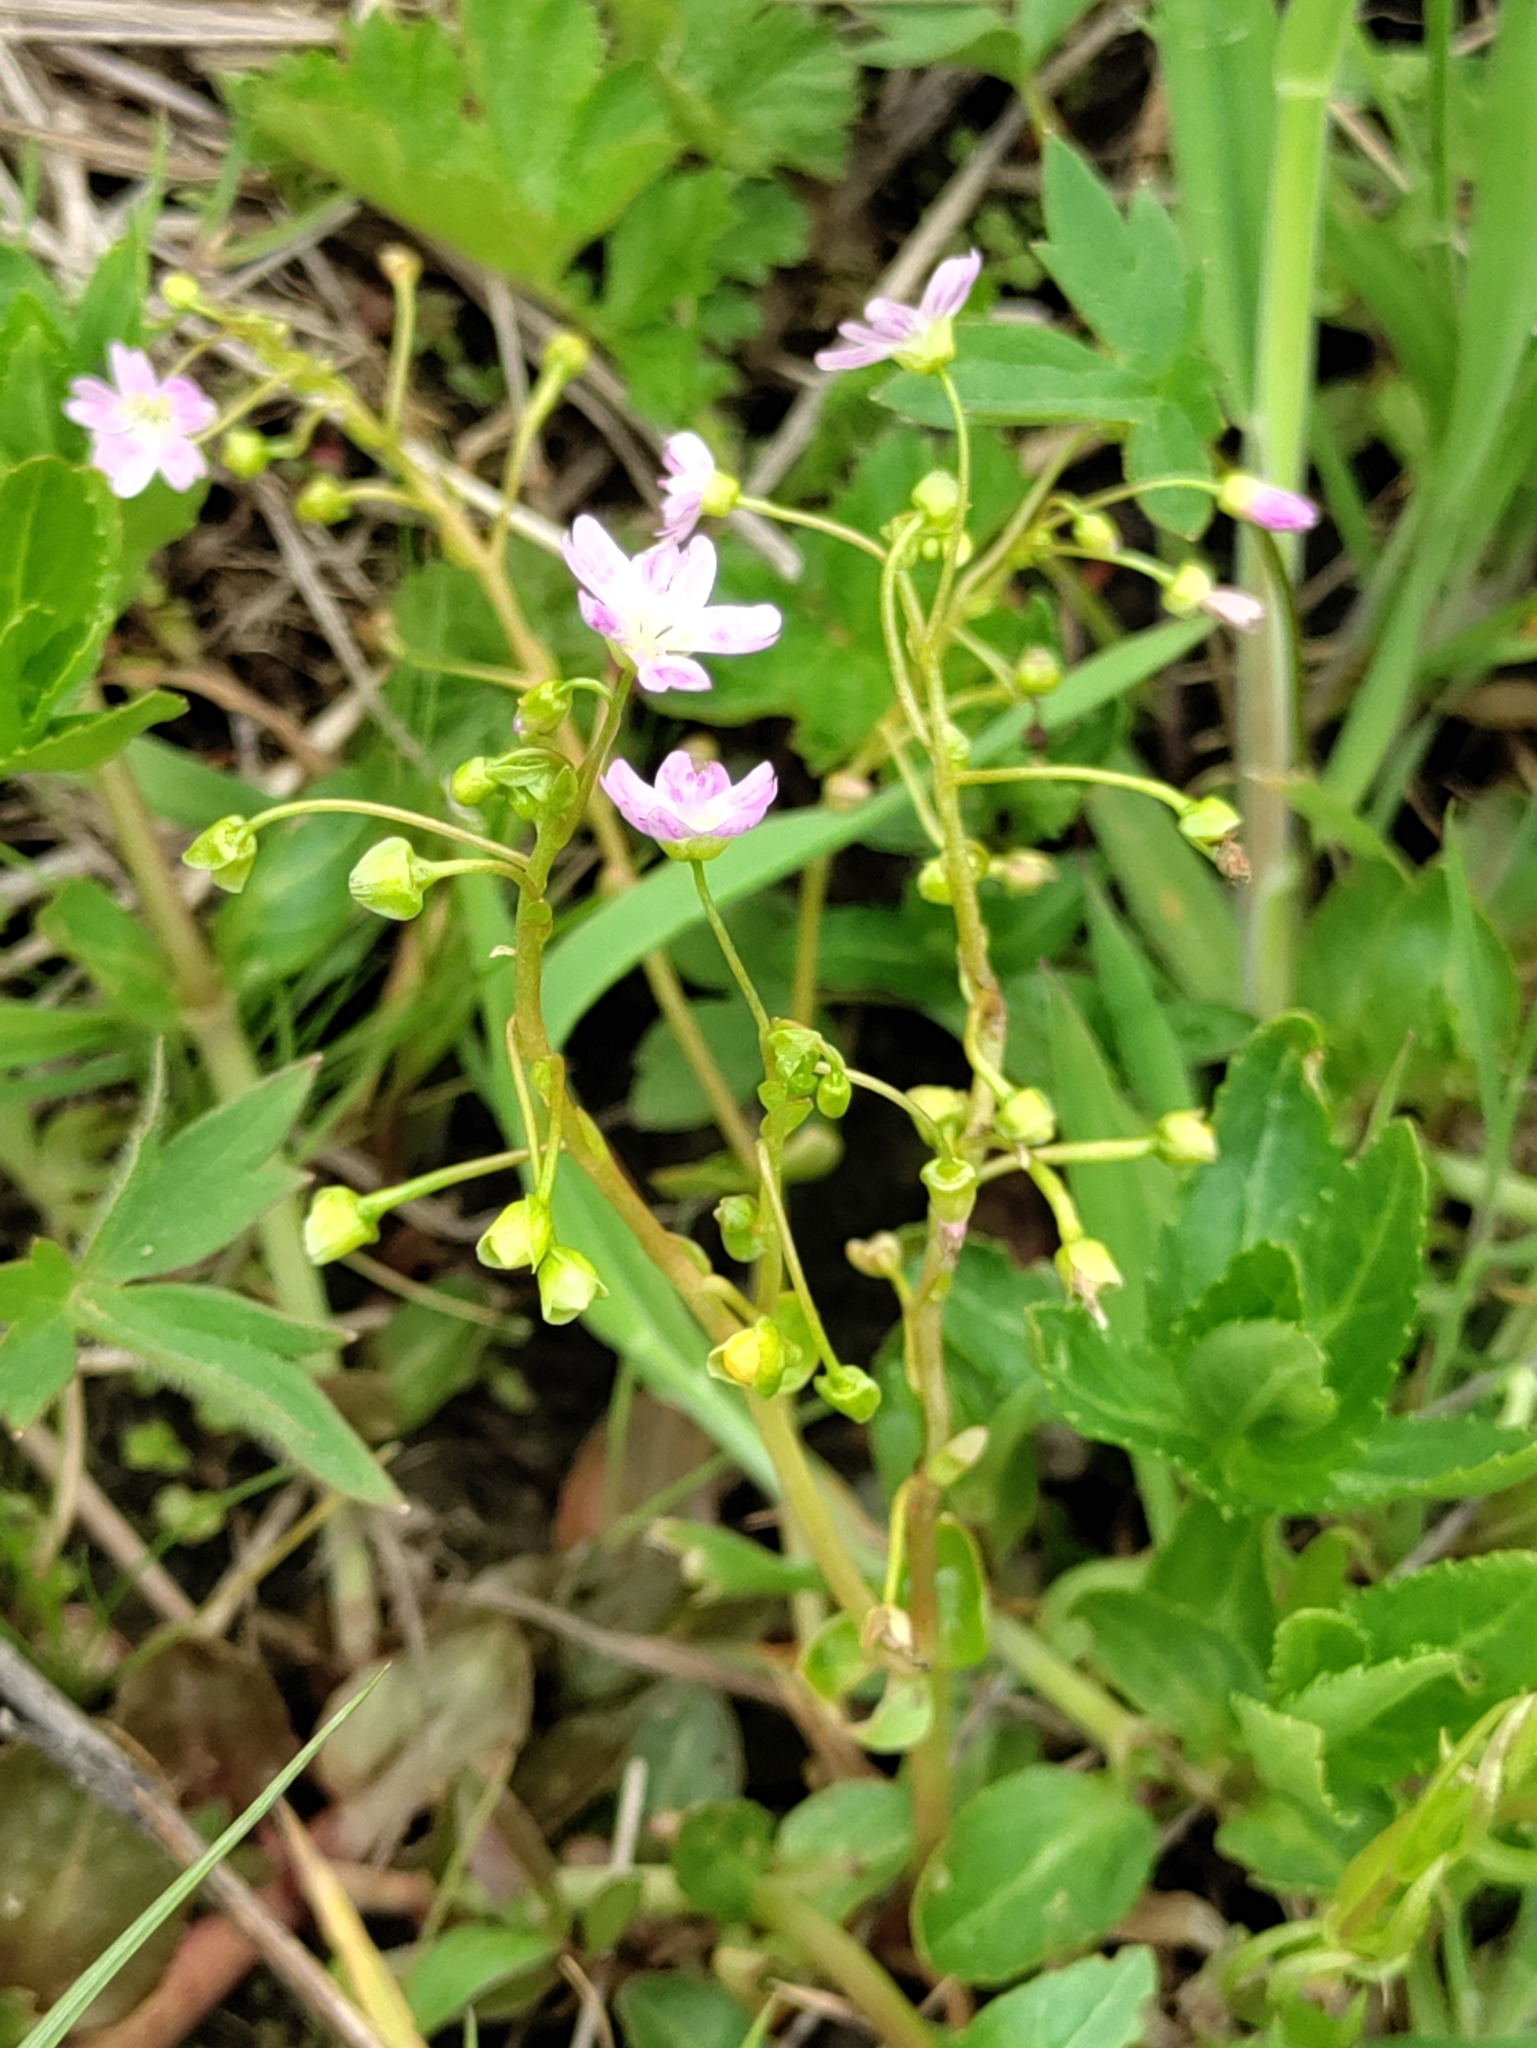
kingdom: Plantae
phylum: Tracheophyta
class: Magnoliopsida
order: Caryophyllales
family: Montiaceae
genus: Claytonia
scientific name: Claytonia sibirica
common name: Pink purslane
